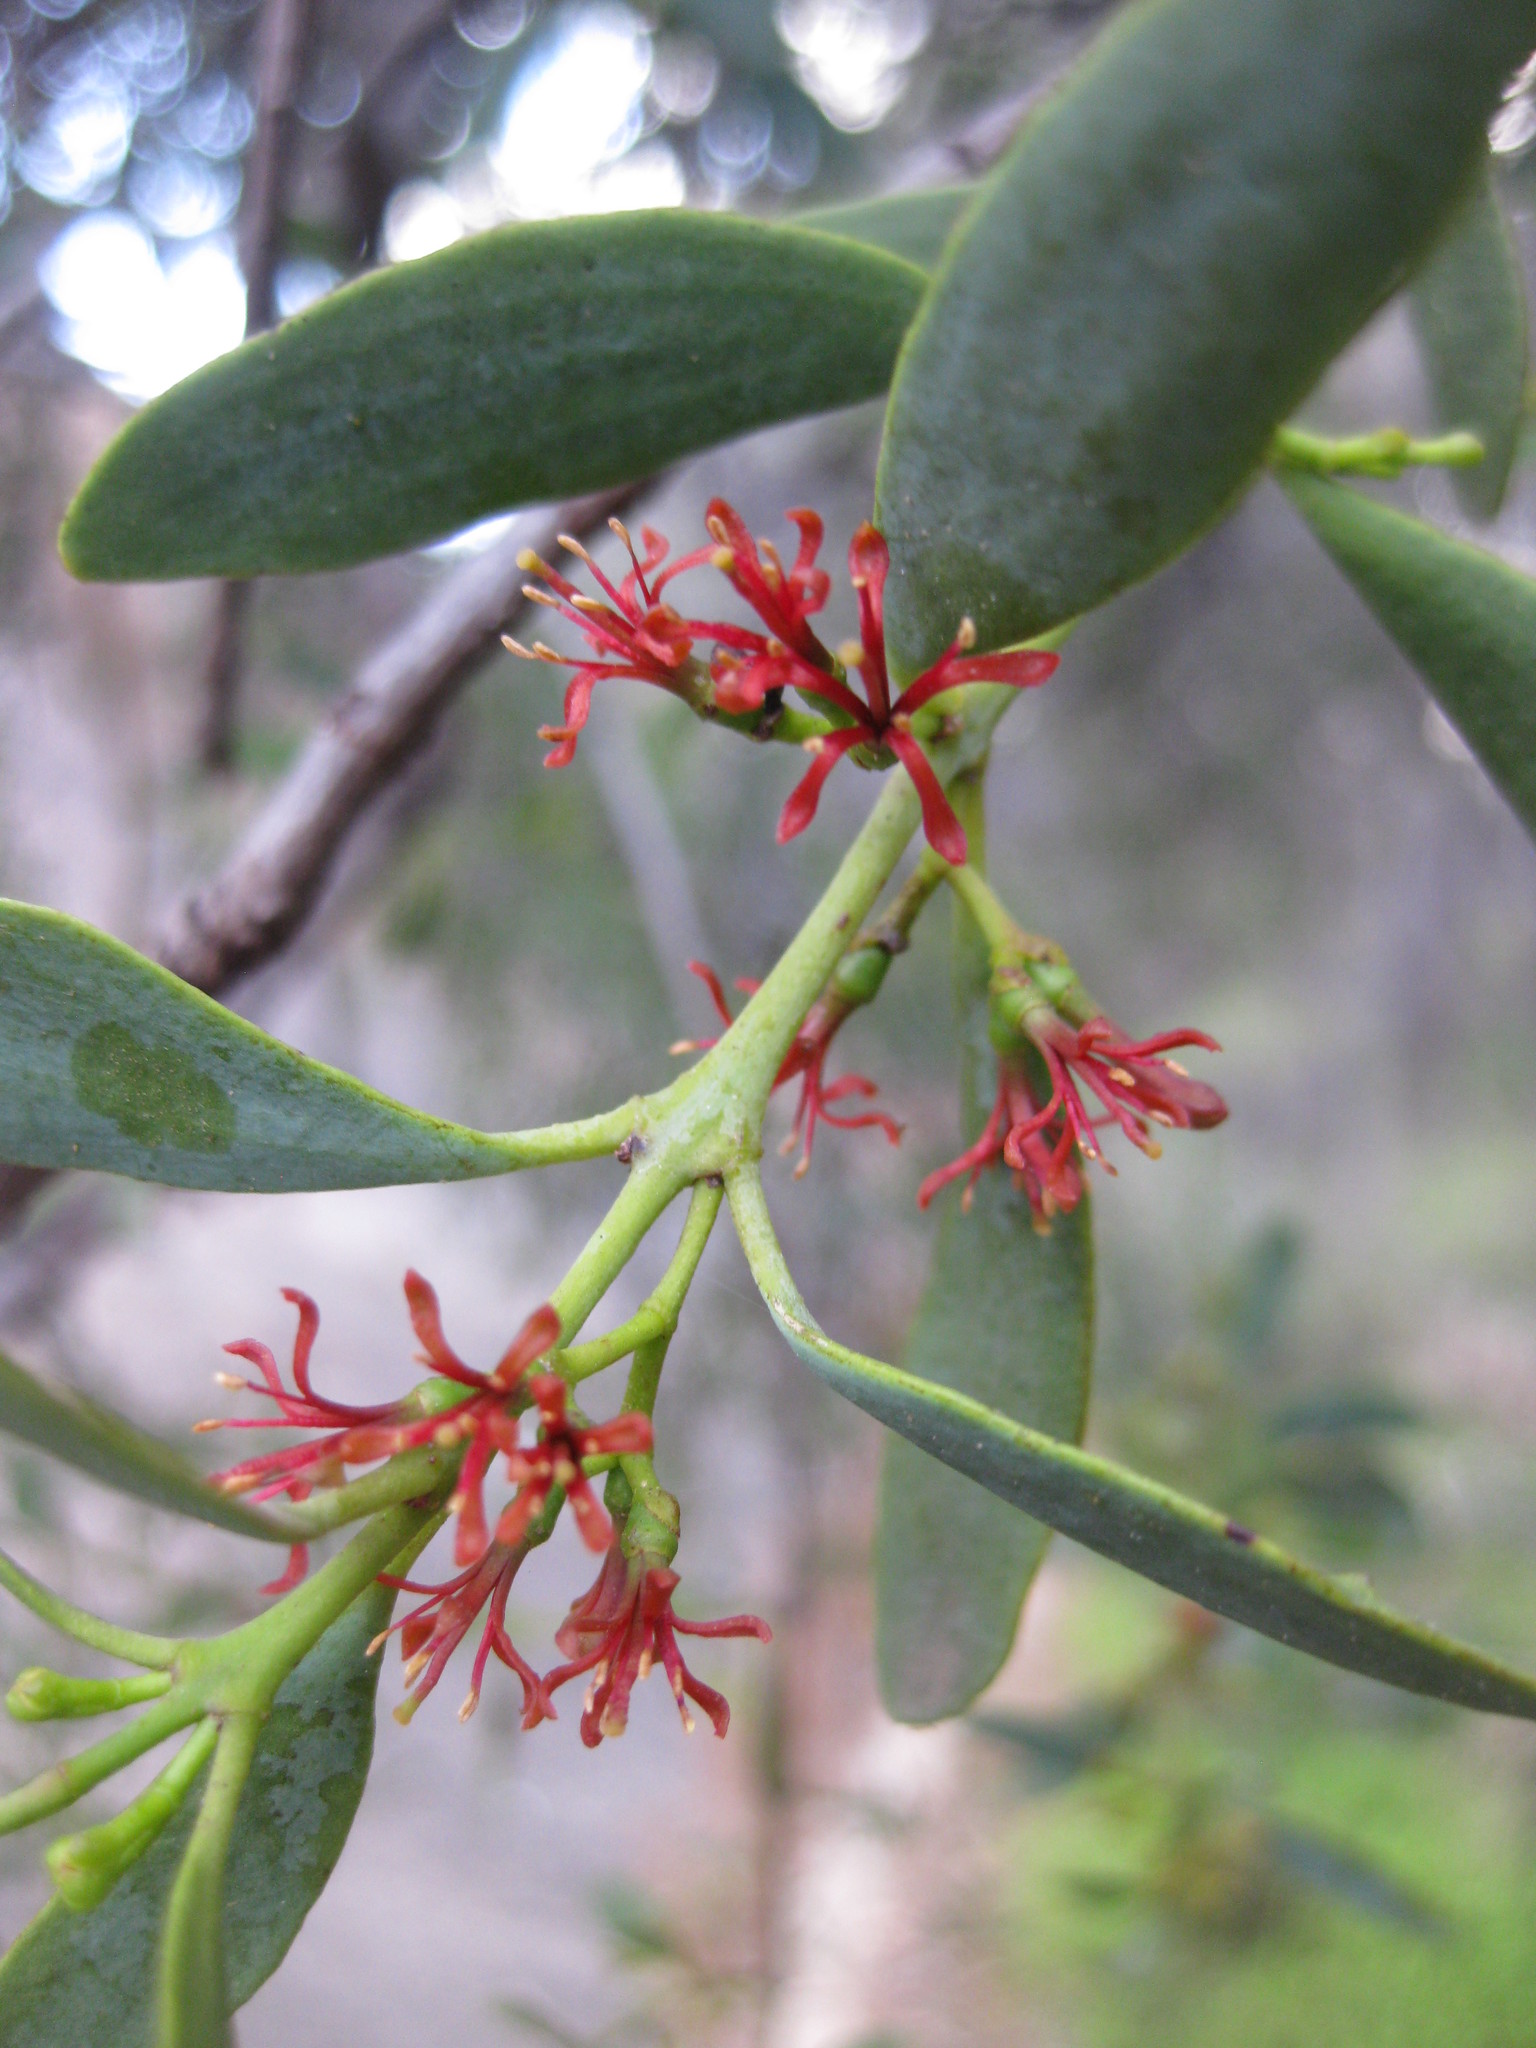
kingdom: Plantae
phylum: Tracheophyta
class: Magnoliopsida
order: Santalales
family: Loranthaceae
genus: Amyema
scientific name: Amyema miraculosa
